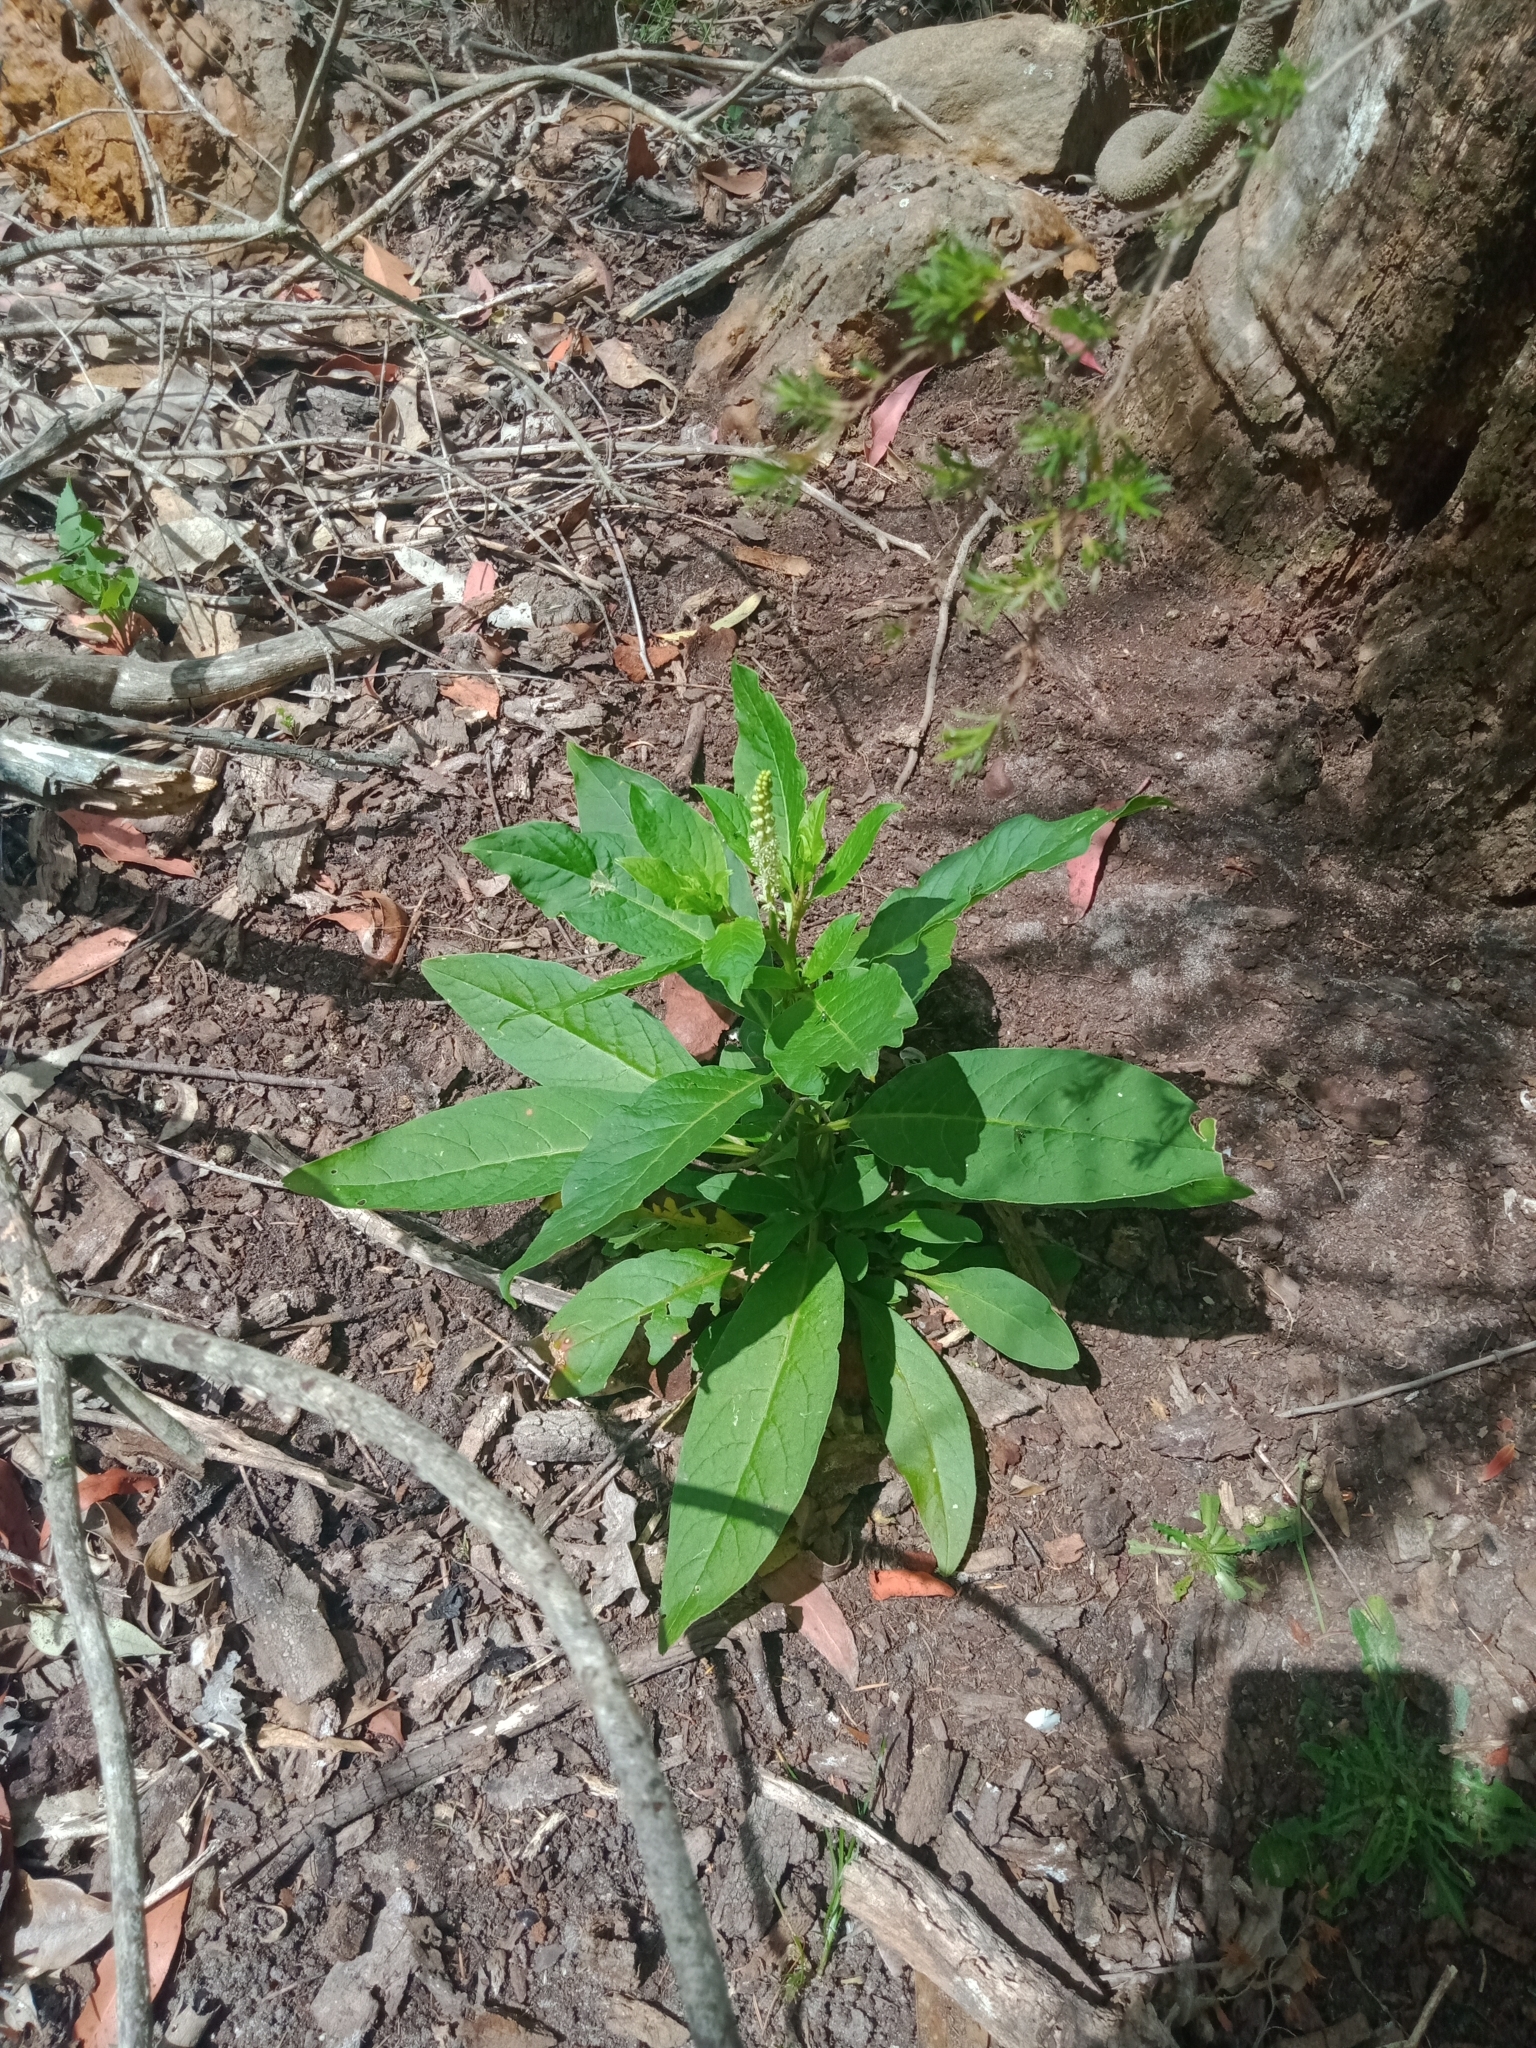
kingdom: Plantae
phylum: Tracheophyta
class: Magnoliopsida
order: Caryophyllales
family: Phytolaccaceae
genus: Phytolacca
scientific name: Phytolacca icosandra
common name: Button pokeweed
